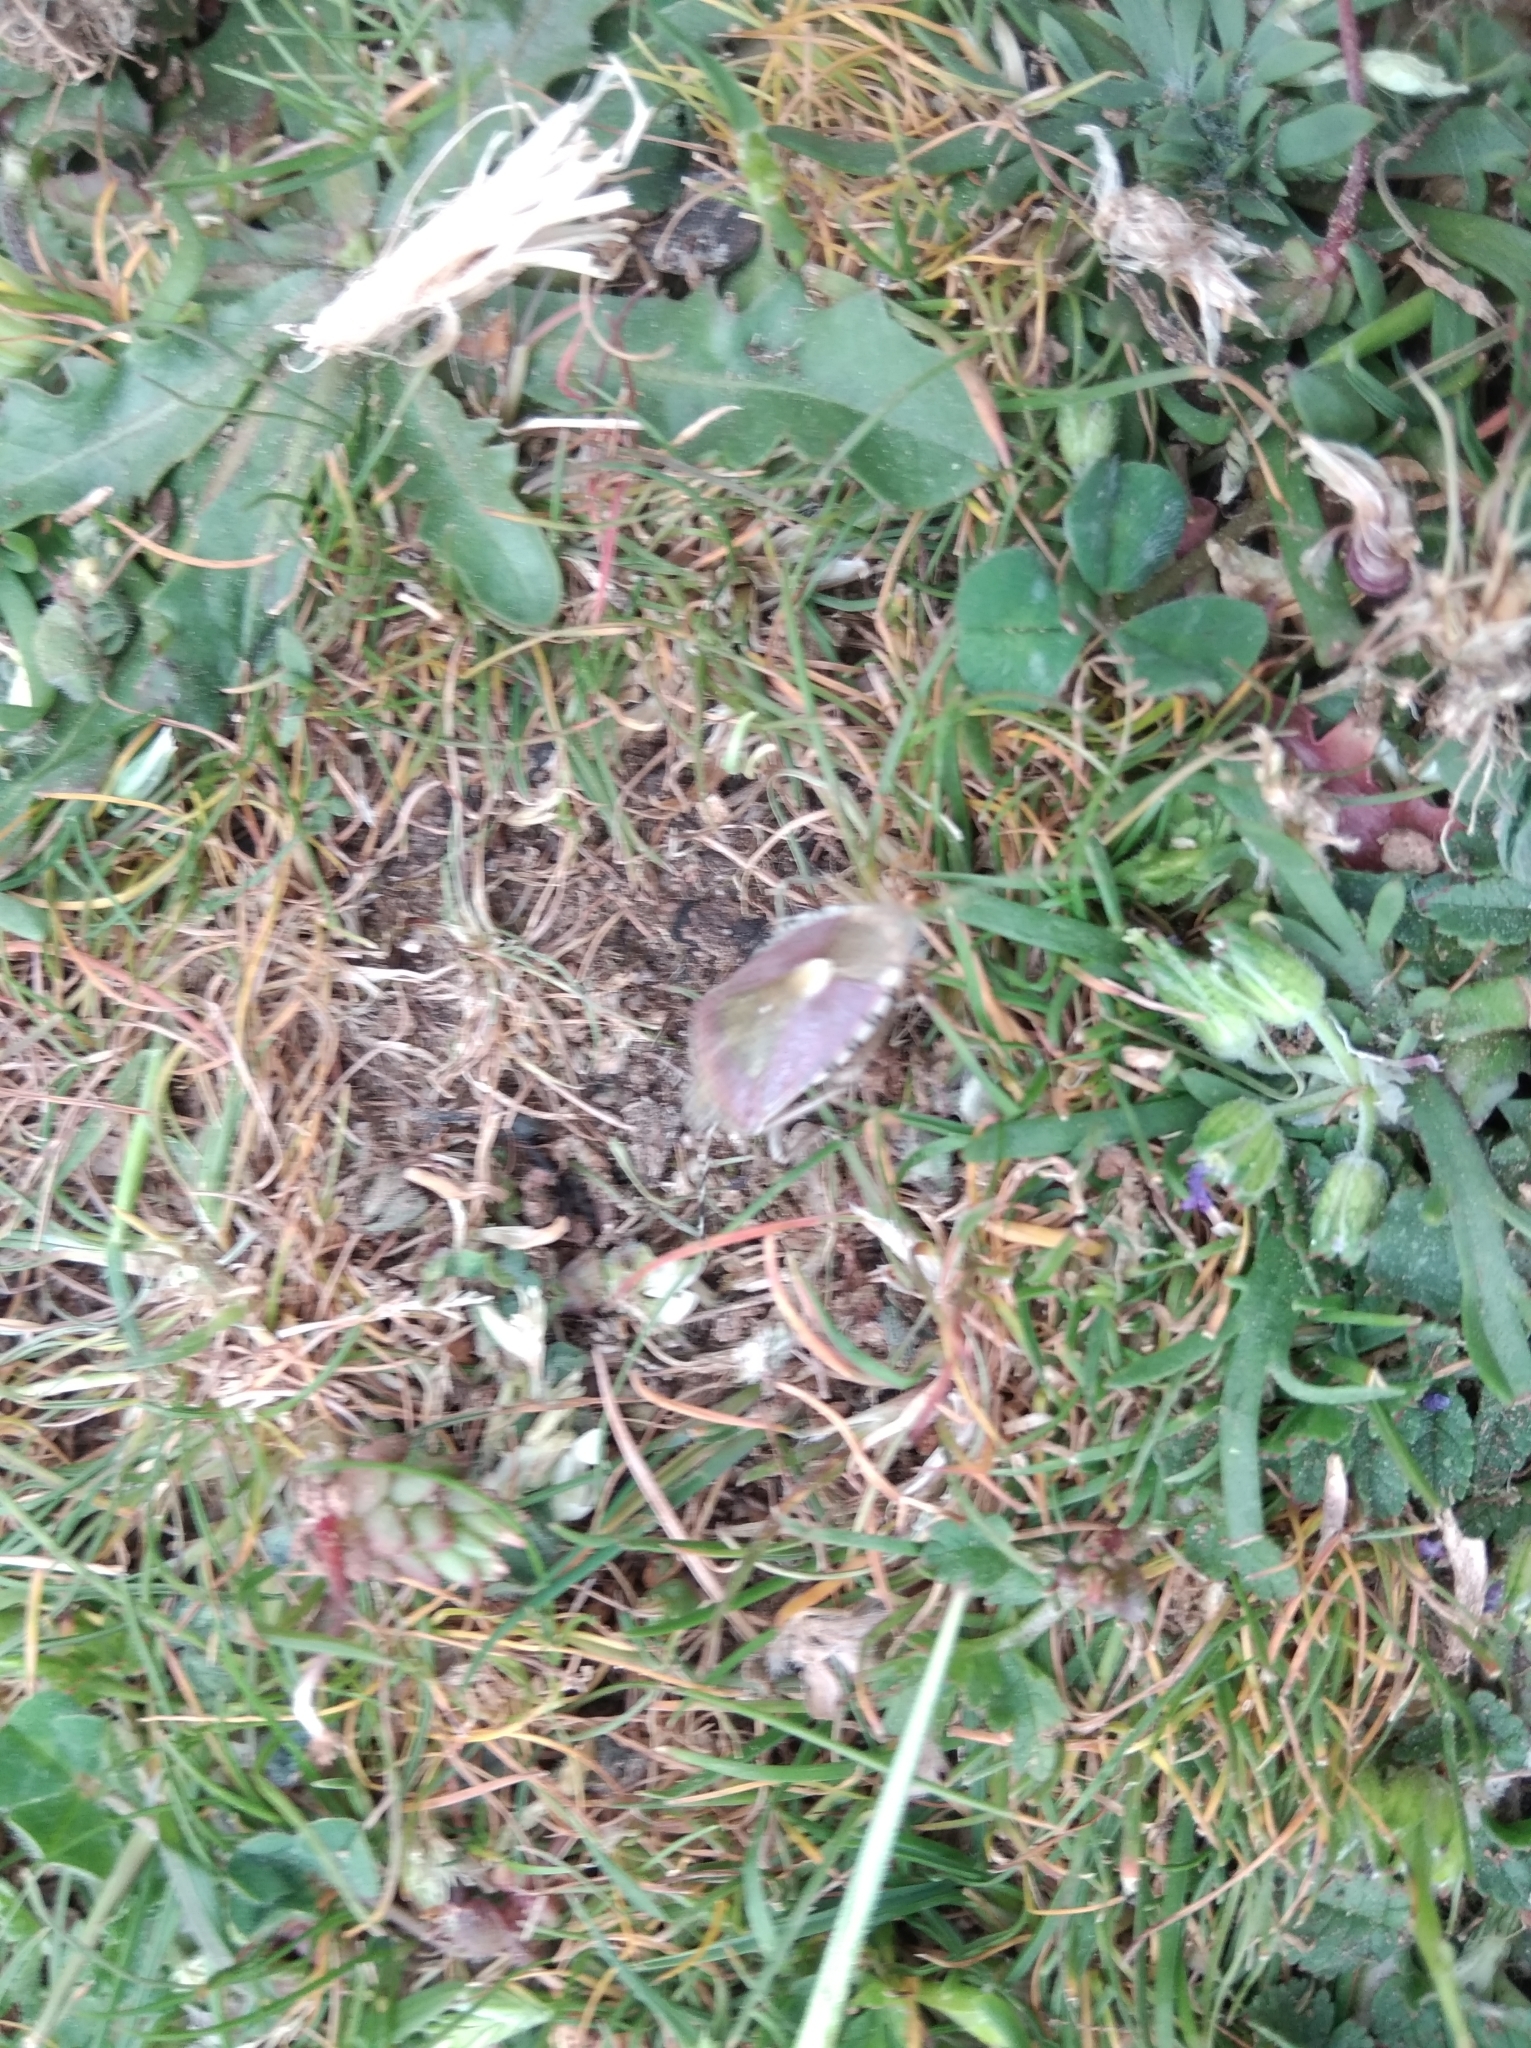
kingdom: Animalia
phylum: Arthropoda
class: Insecta
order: Hemiptera
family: Pentatomidae
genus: Dolycoris
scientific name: Dolycoris baccarum
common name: Sloe bug
